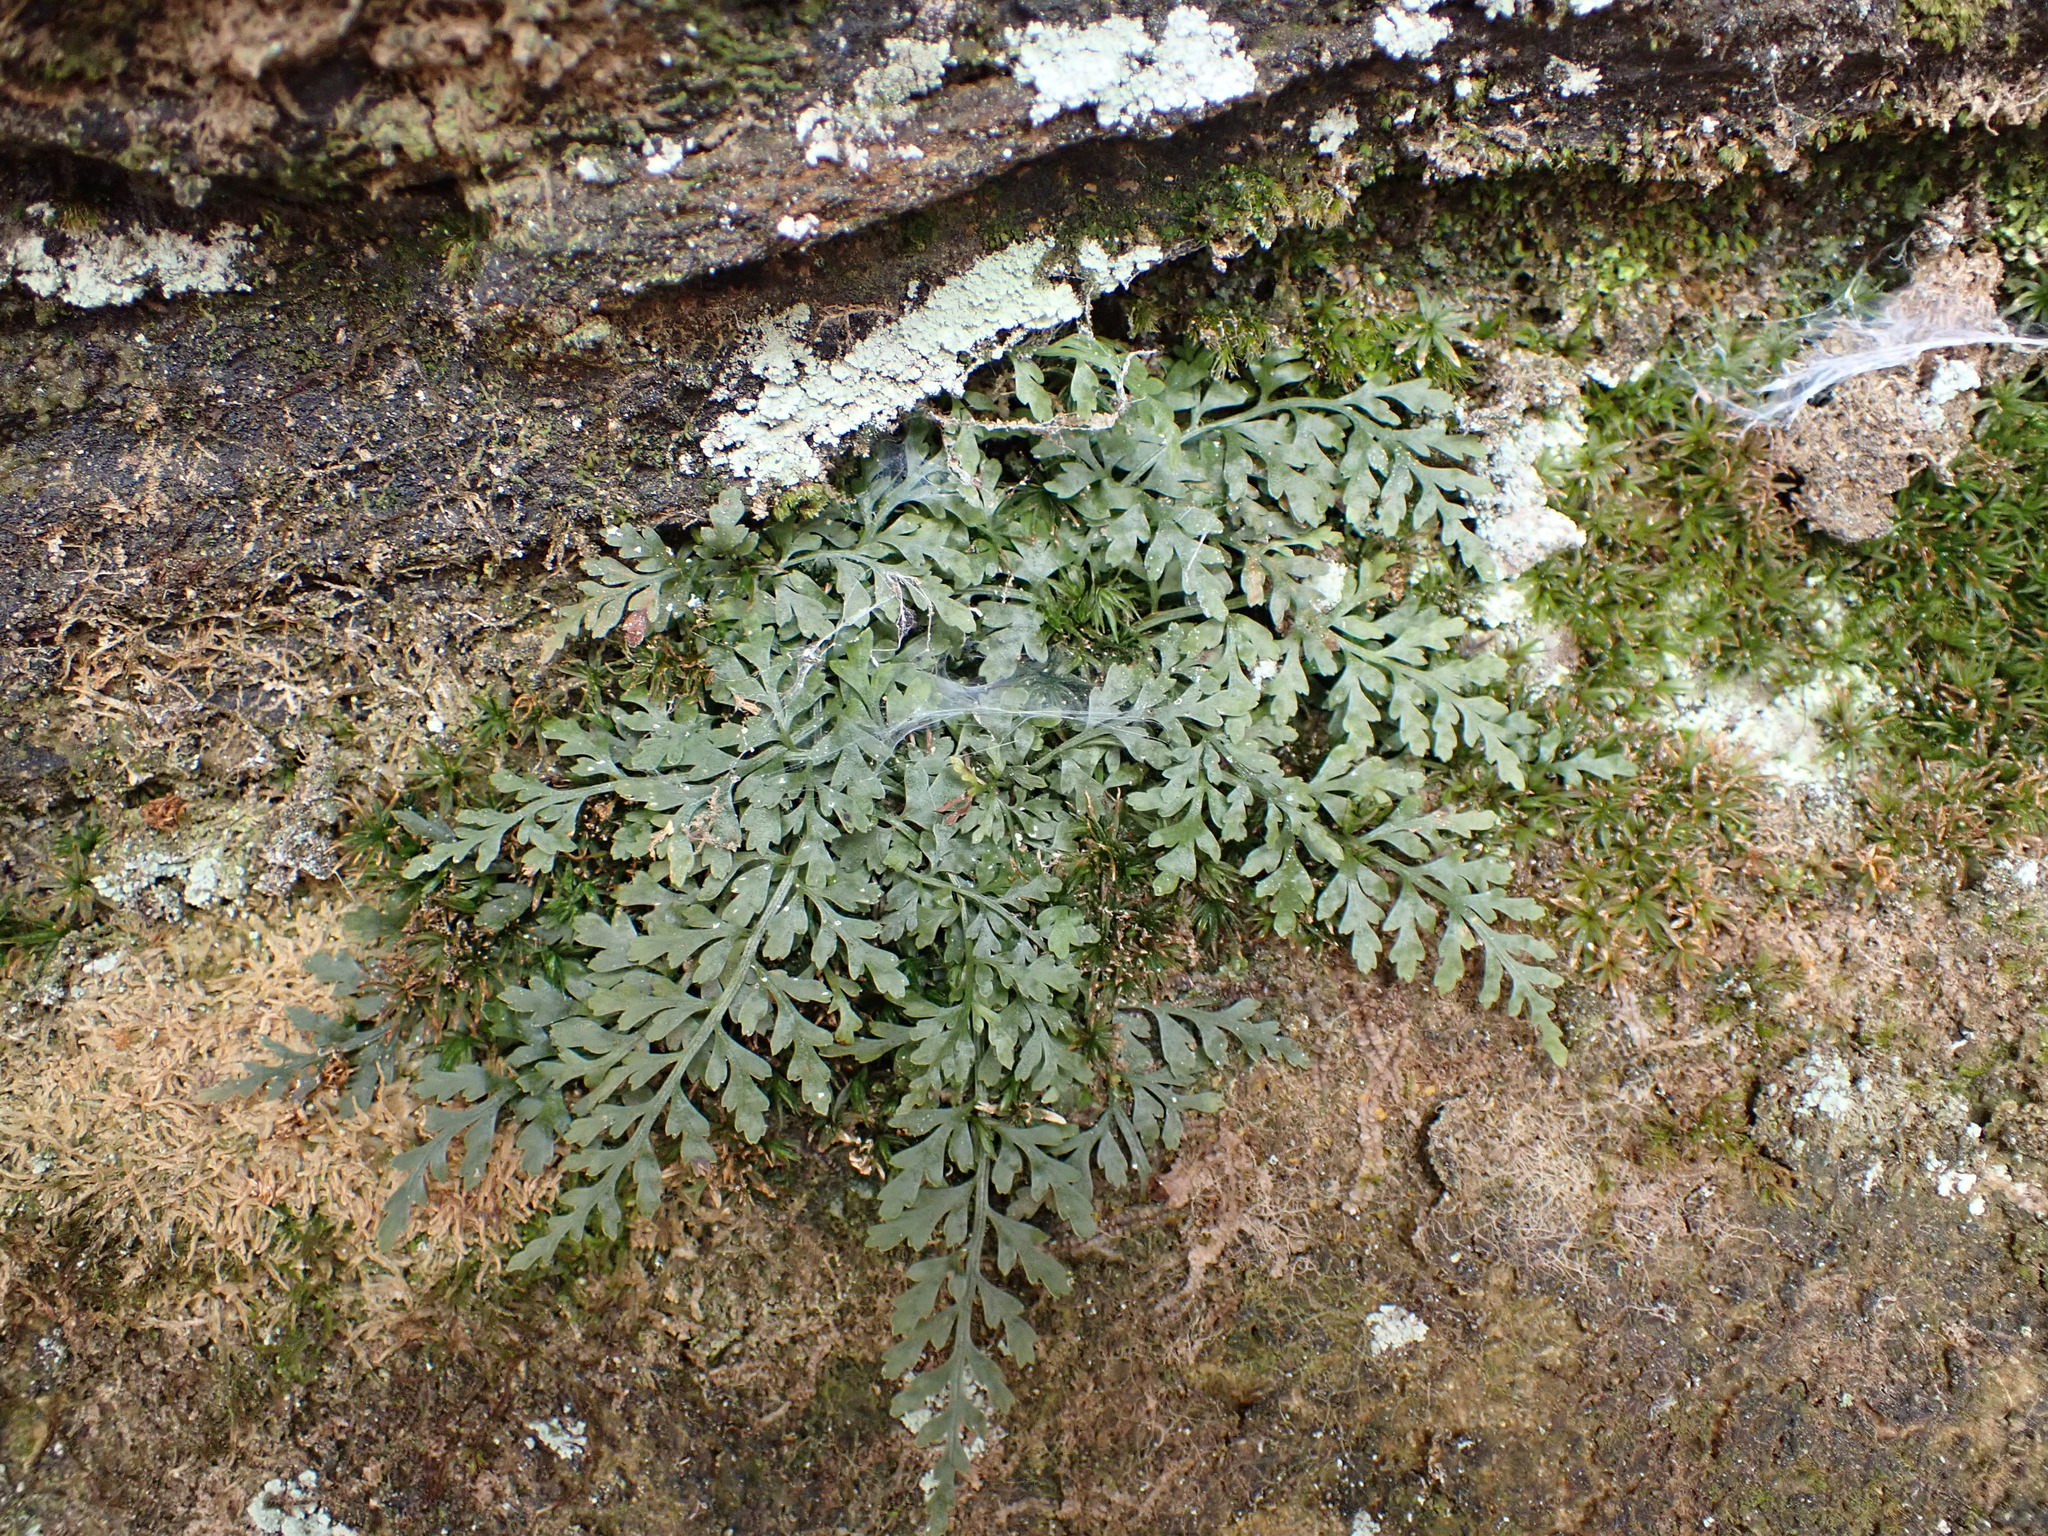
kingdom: Plantae
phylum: Tracheophyta
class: Polypodiopsida
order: Polypodiales
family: Aspleniaceae
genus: Asplenium
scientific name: Asplenium montanum
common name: Mountain spleenwort
